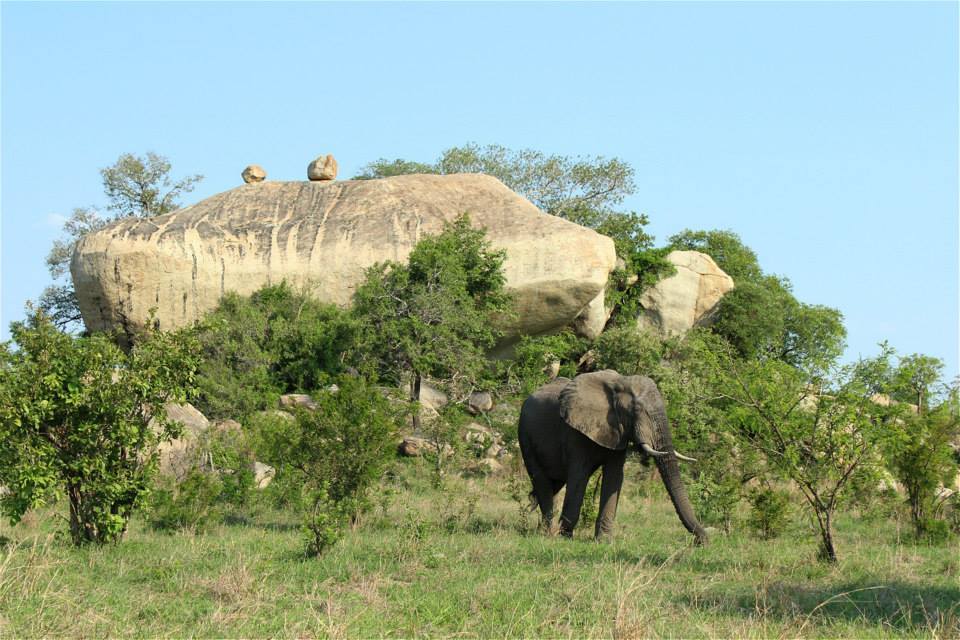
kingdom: Animalia
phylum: Chordata
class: Mammalia
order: Proboscidea
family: Elephantidae
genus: Loxodonta
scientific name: Loxodonta africana
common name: African elephant
